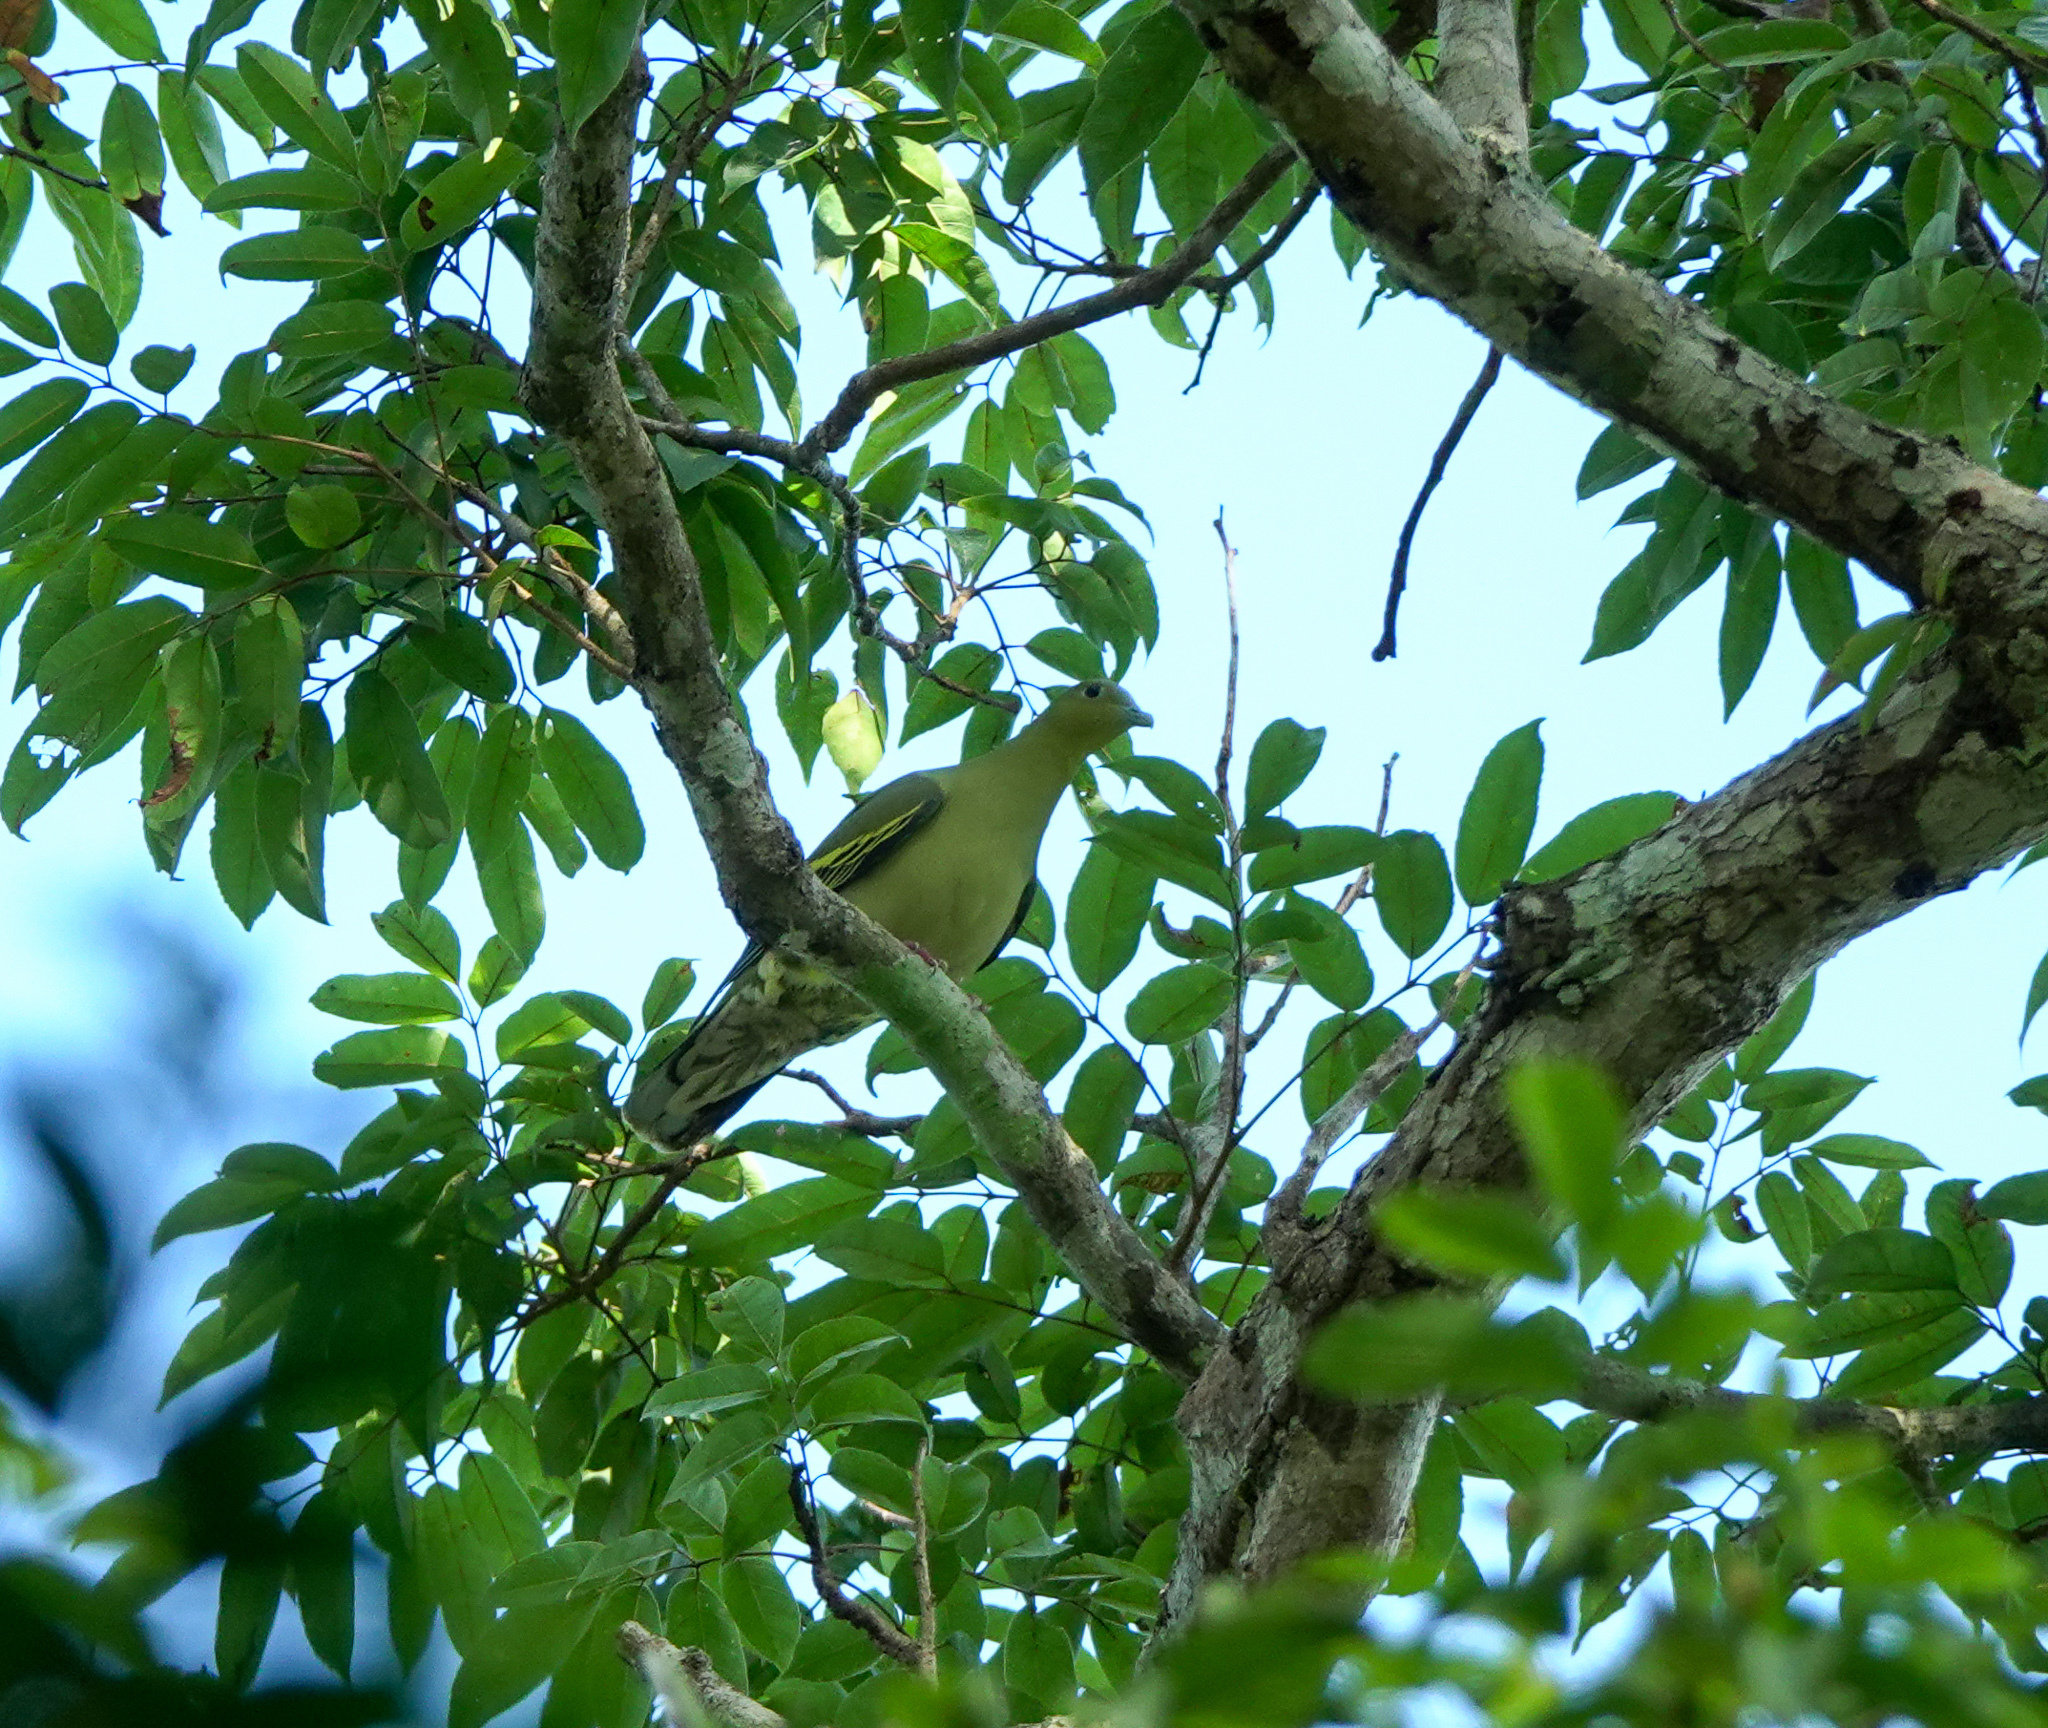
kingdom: Animalia
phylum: Chordata
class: Aves
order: Columbiformes
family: Columbidae
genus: Treron
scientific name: Treron phayrei
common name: Ashy-headed green pigeon
